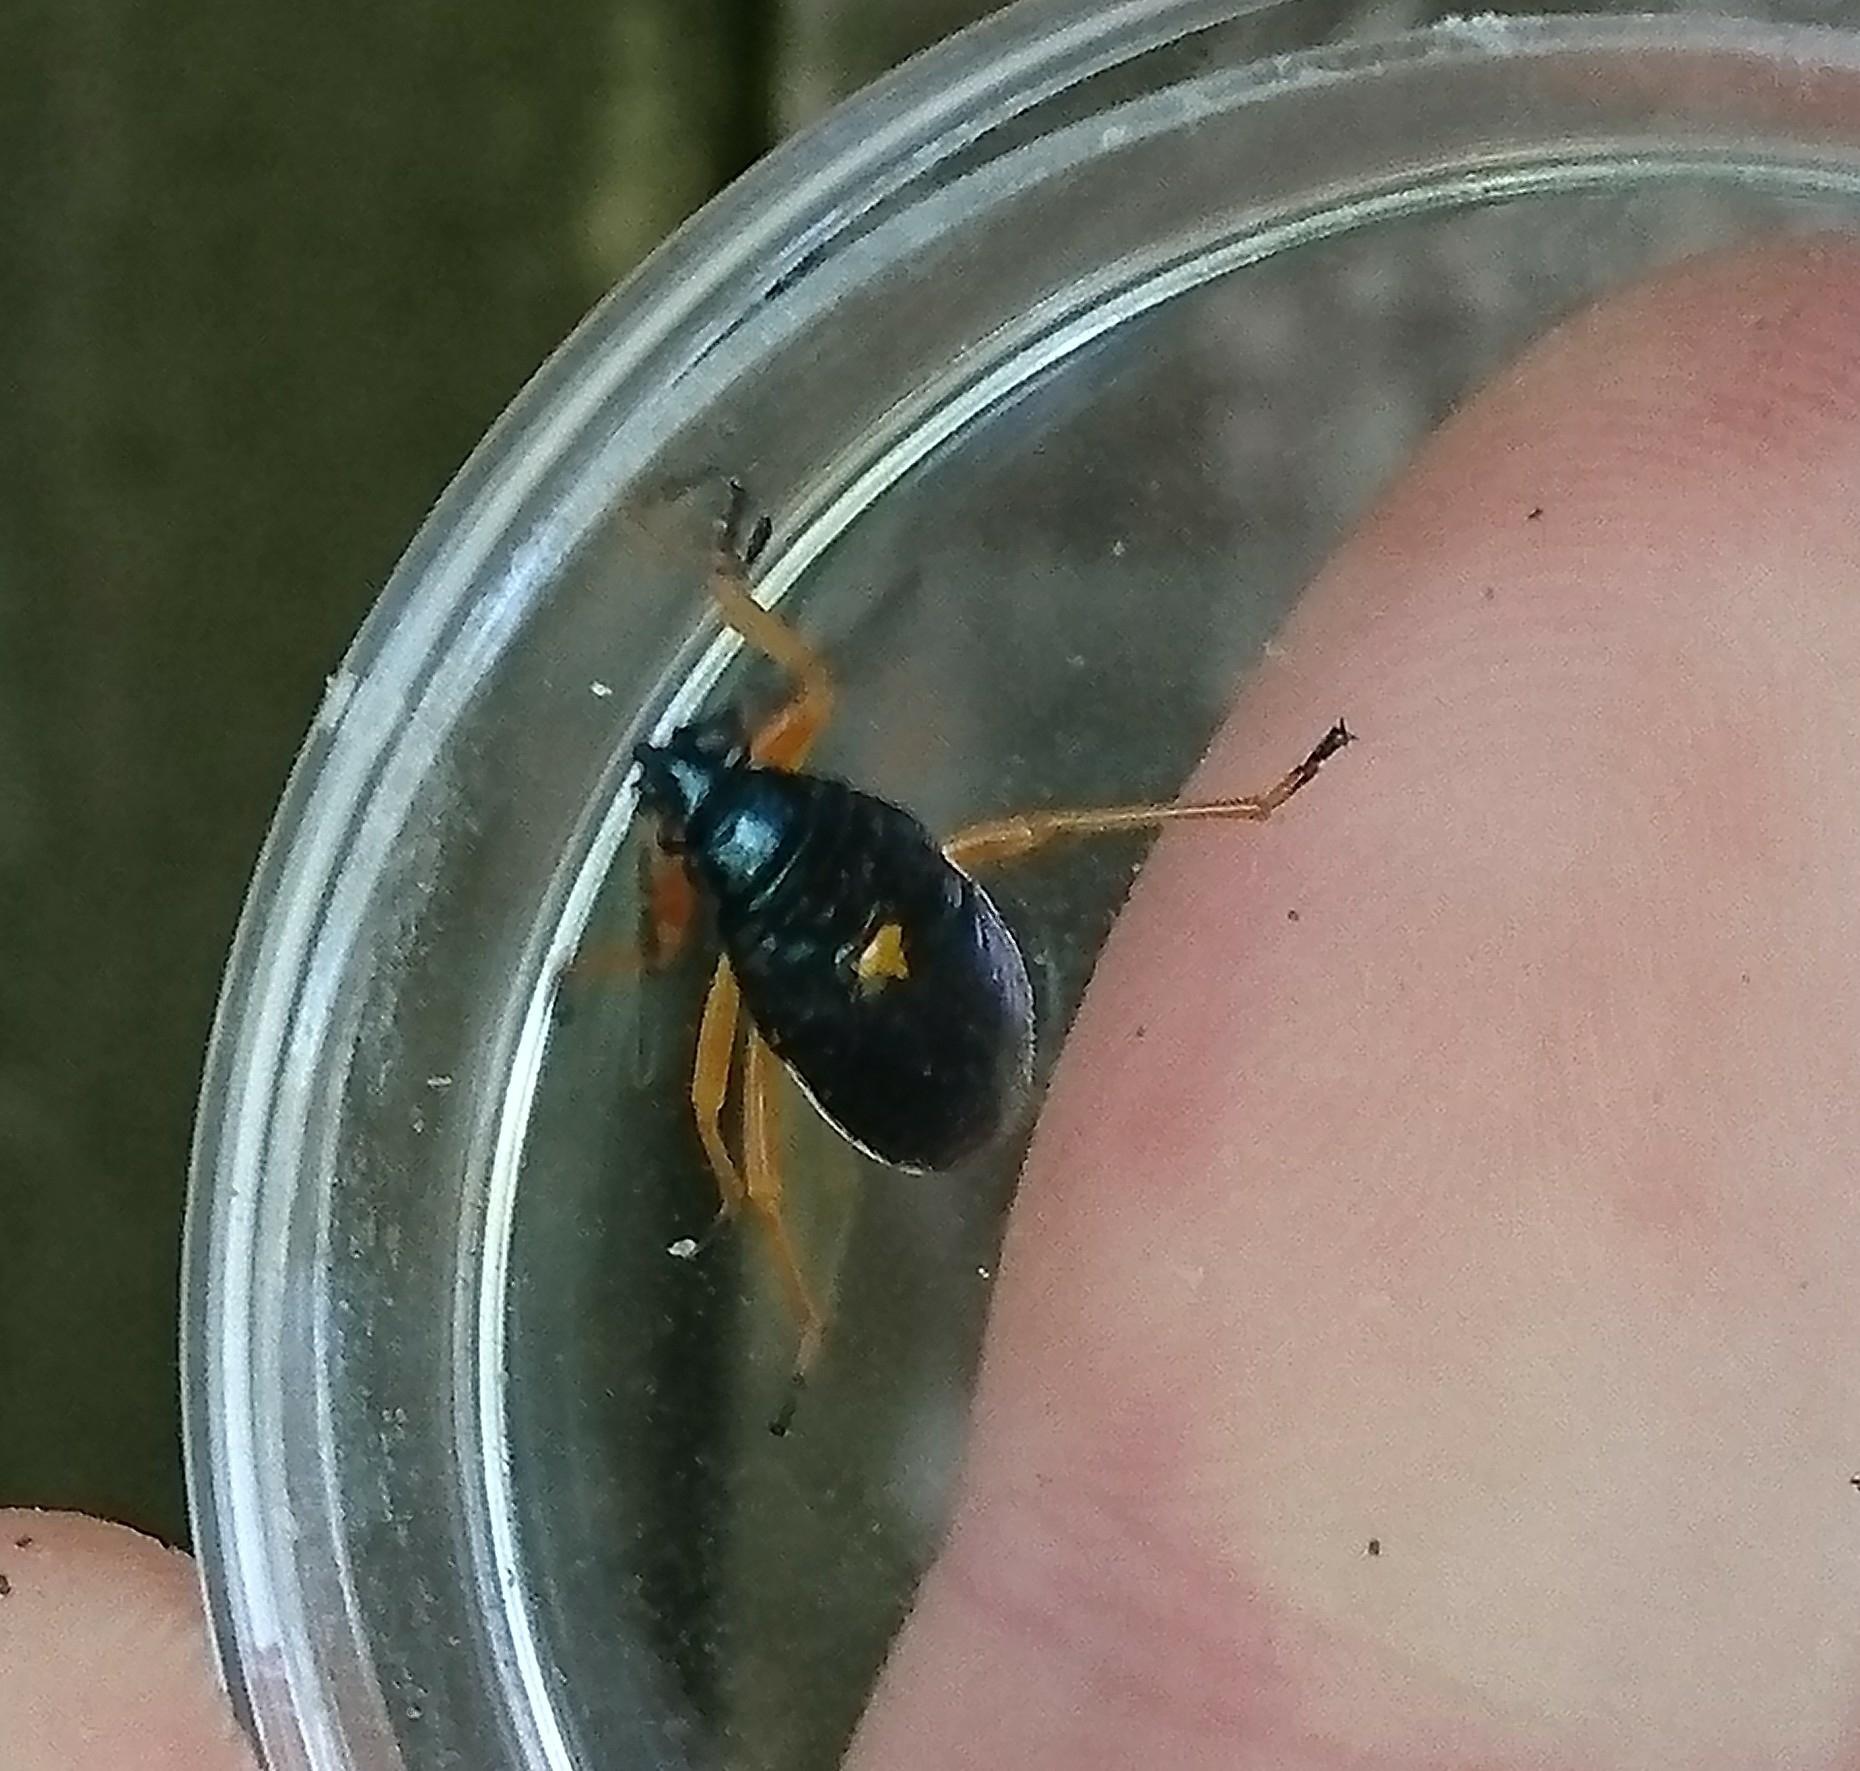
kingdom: Animalia
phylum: Arthropoda
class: Insecta
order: Hemiptera
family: Largidae
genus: Largus
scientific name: Largus succinctus
